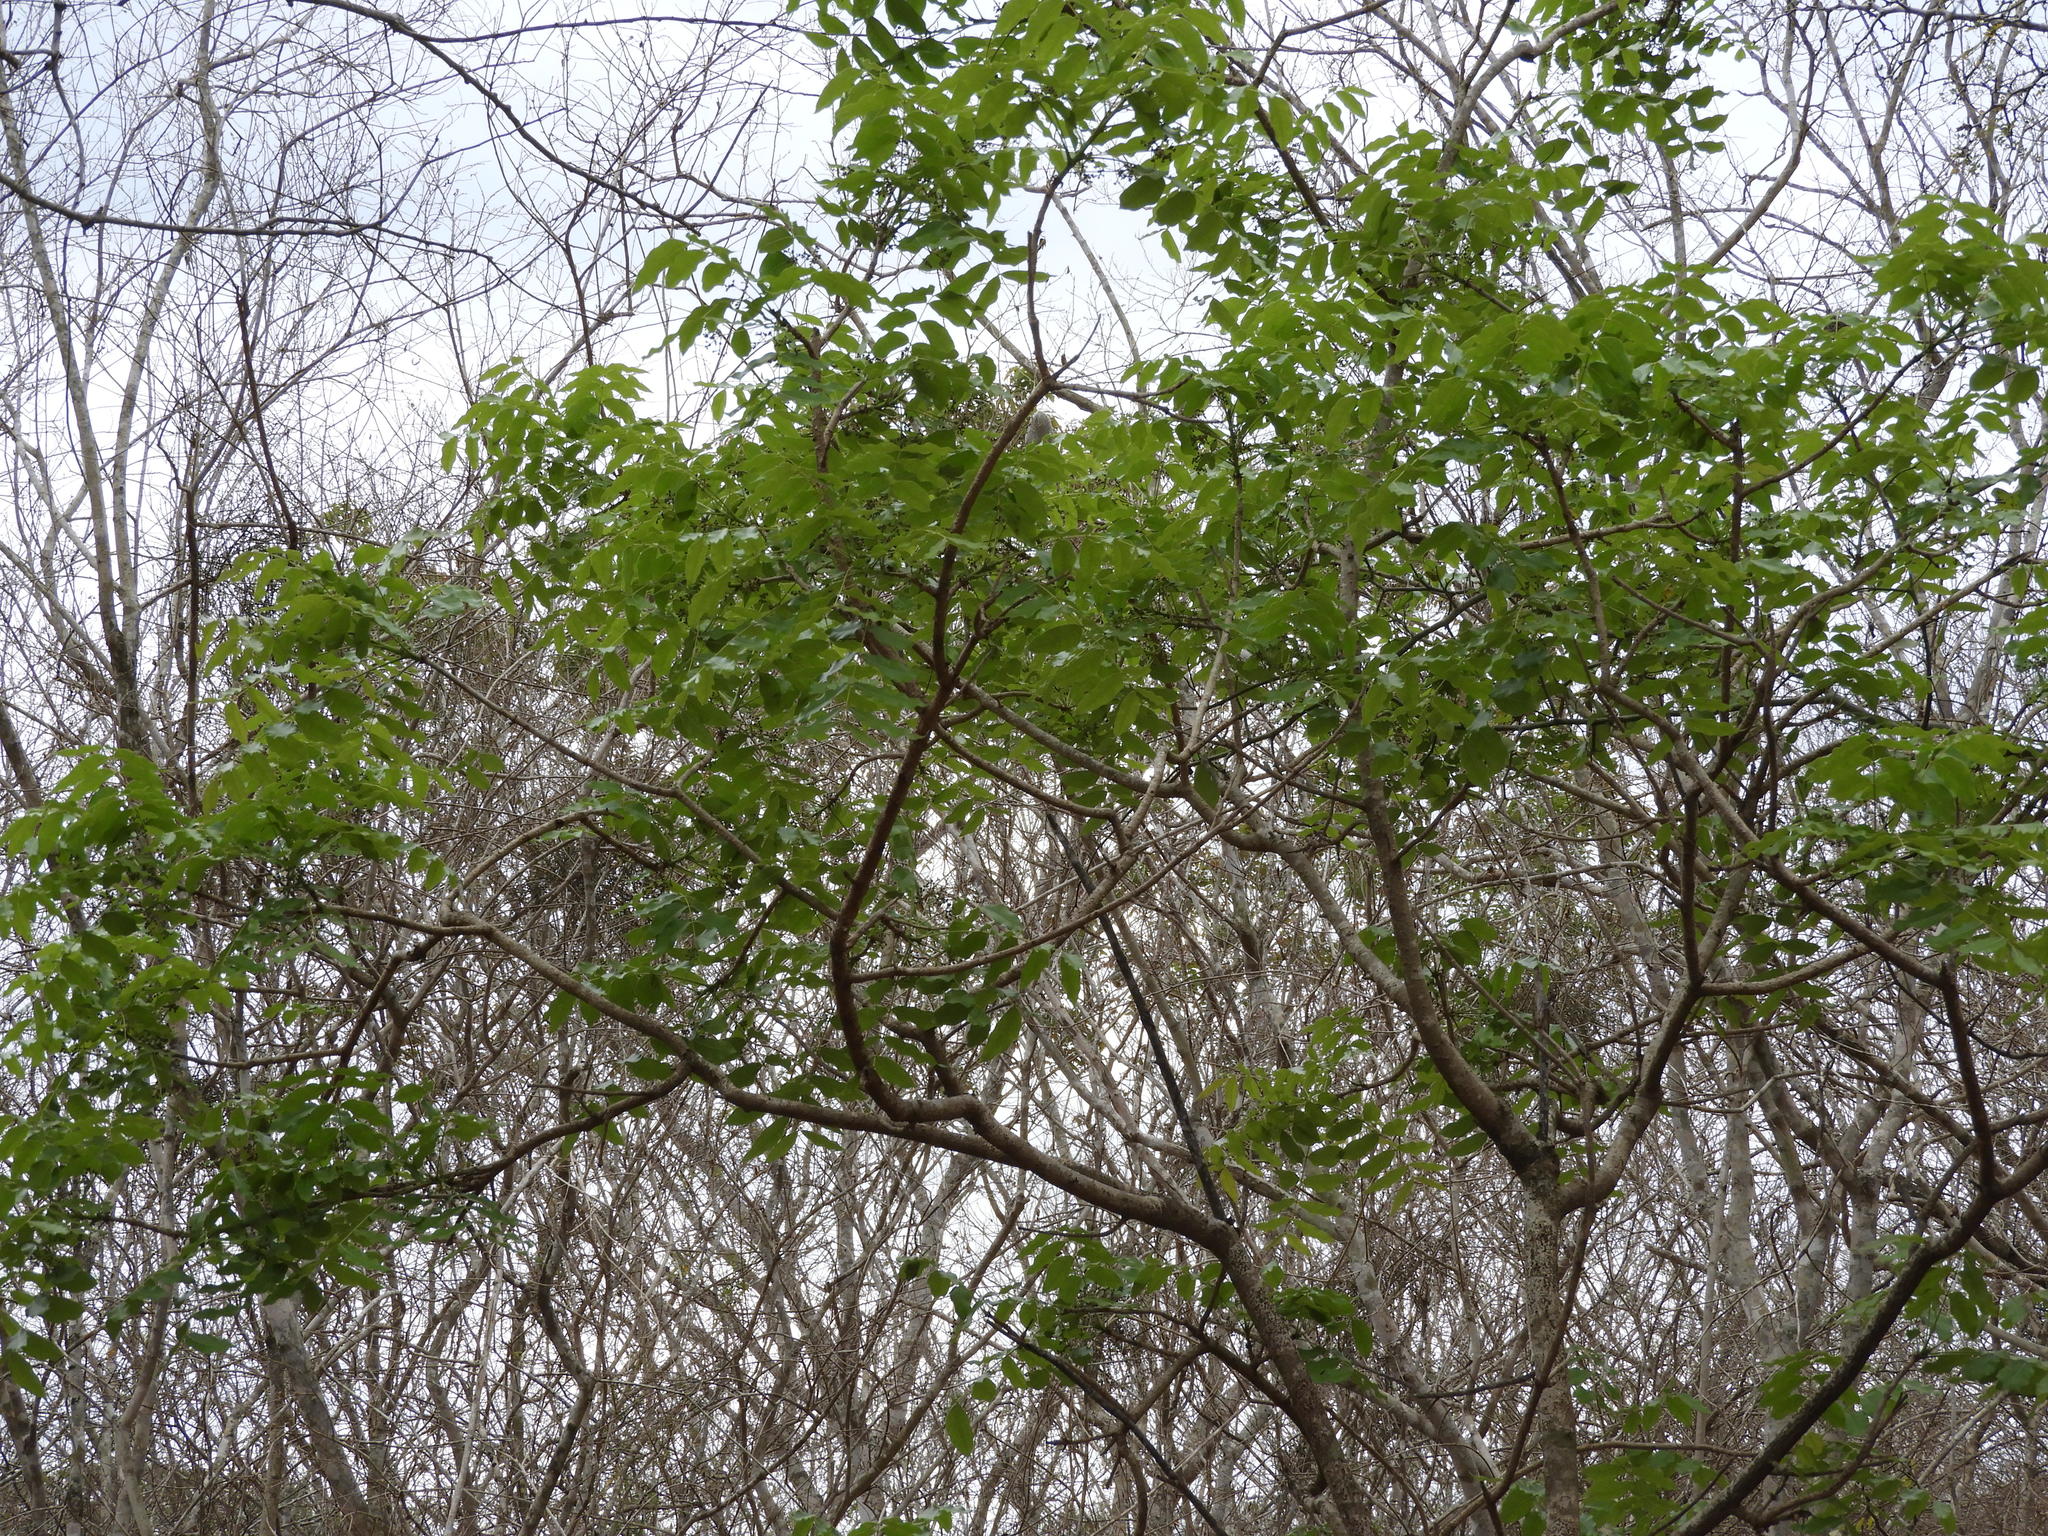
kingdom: Plantae
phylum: Tracheophyta
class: Magnoliopsida
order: Sapindales
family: Meliaceae
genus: Swietenia
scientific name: Swietenia humilis
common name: Pacific coast mahogany
